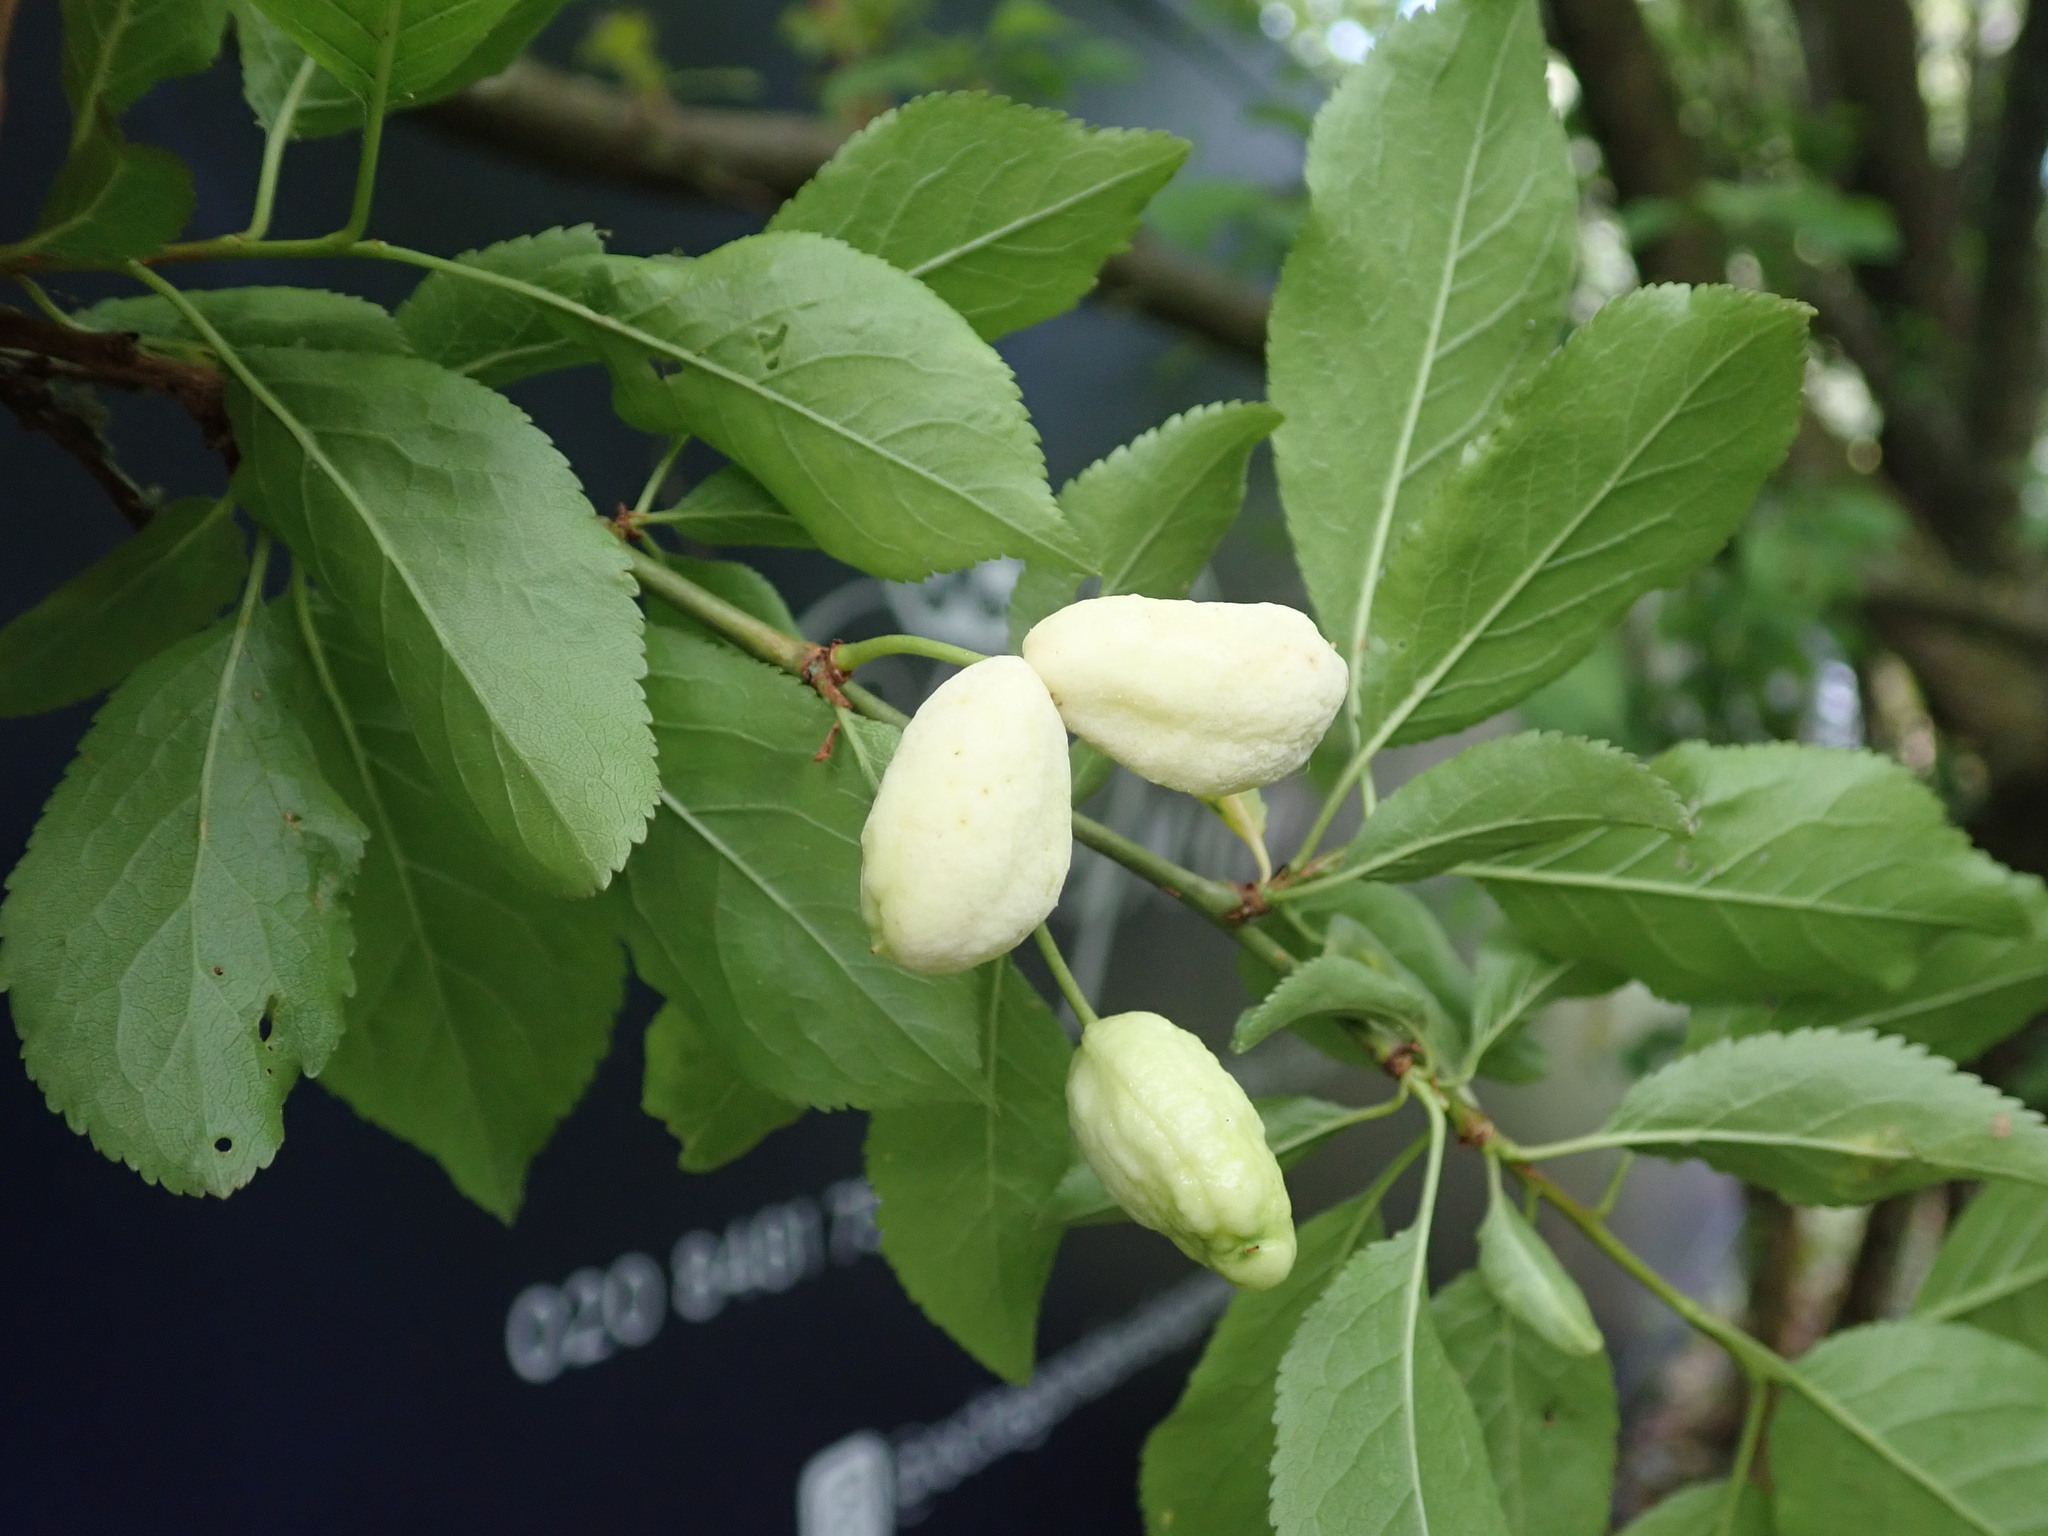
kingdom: Fungi
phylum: Ascomycota
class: Taphrinomycetes
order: Taphrinales
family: Taphrinaceae
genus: Taphrina
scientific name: Taphrina pruni
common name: Pocket plum
